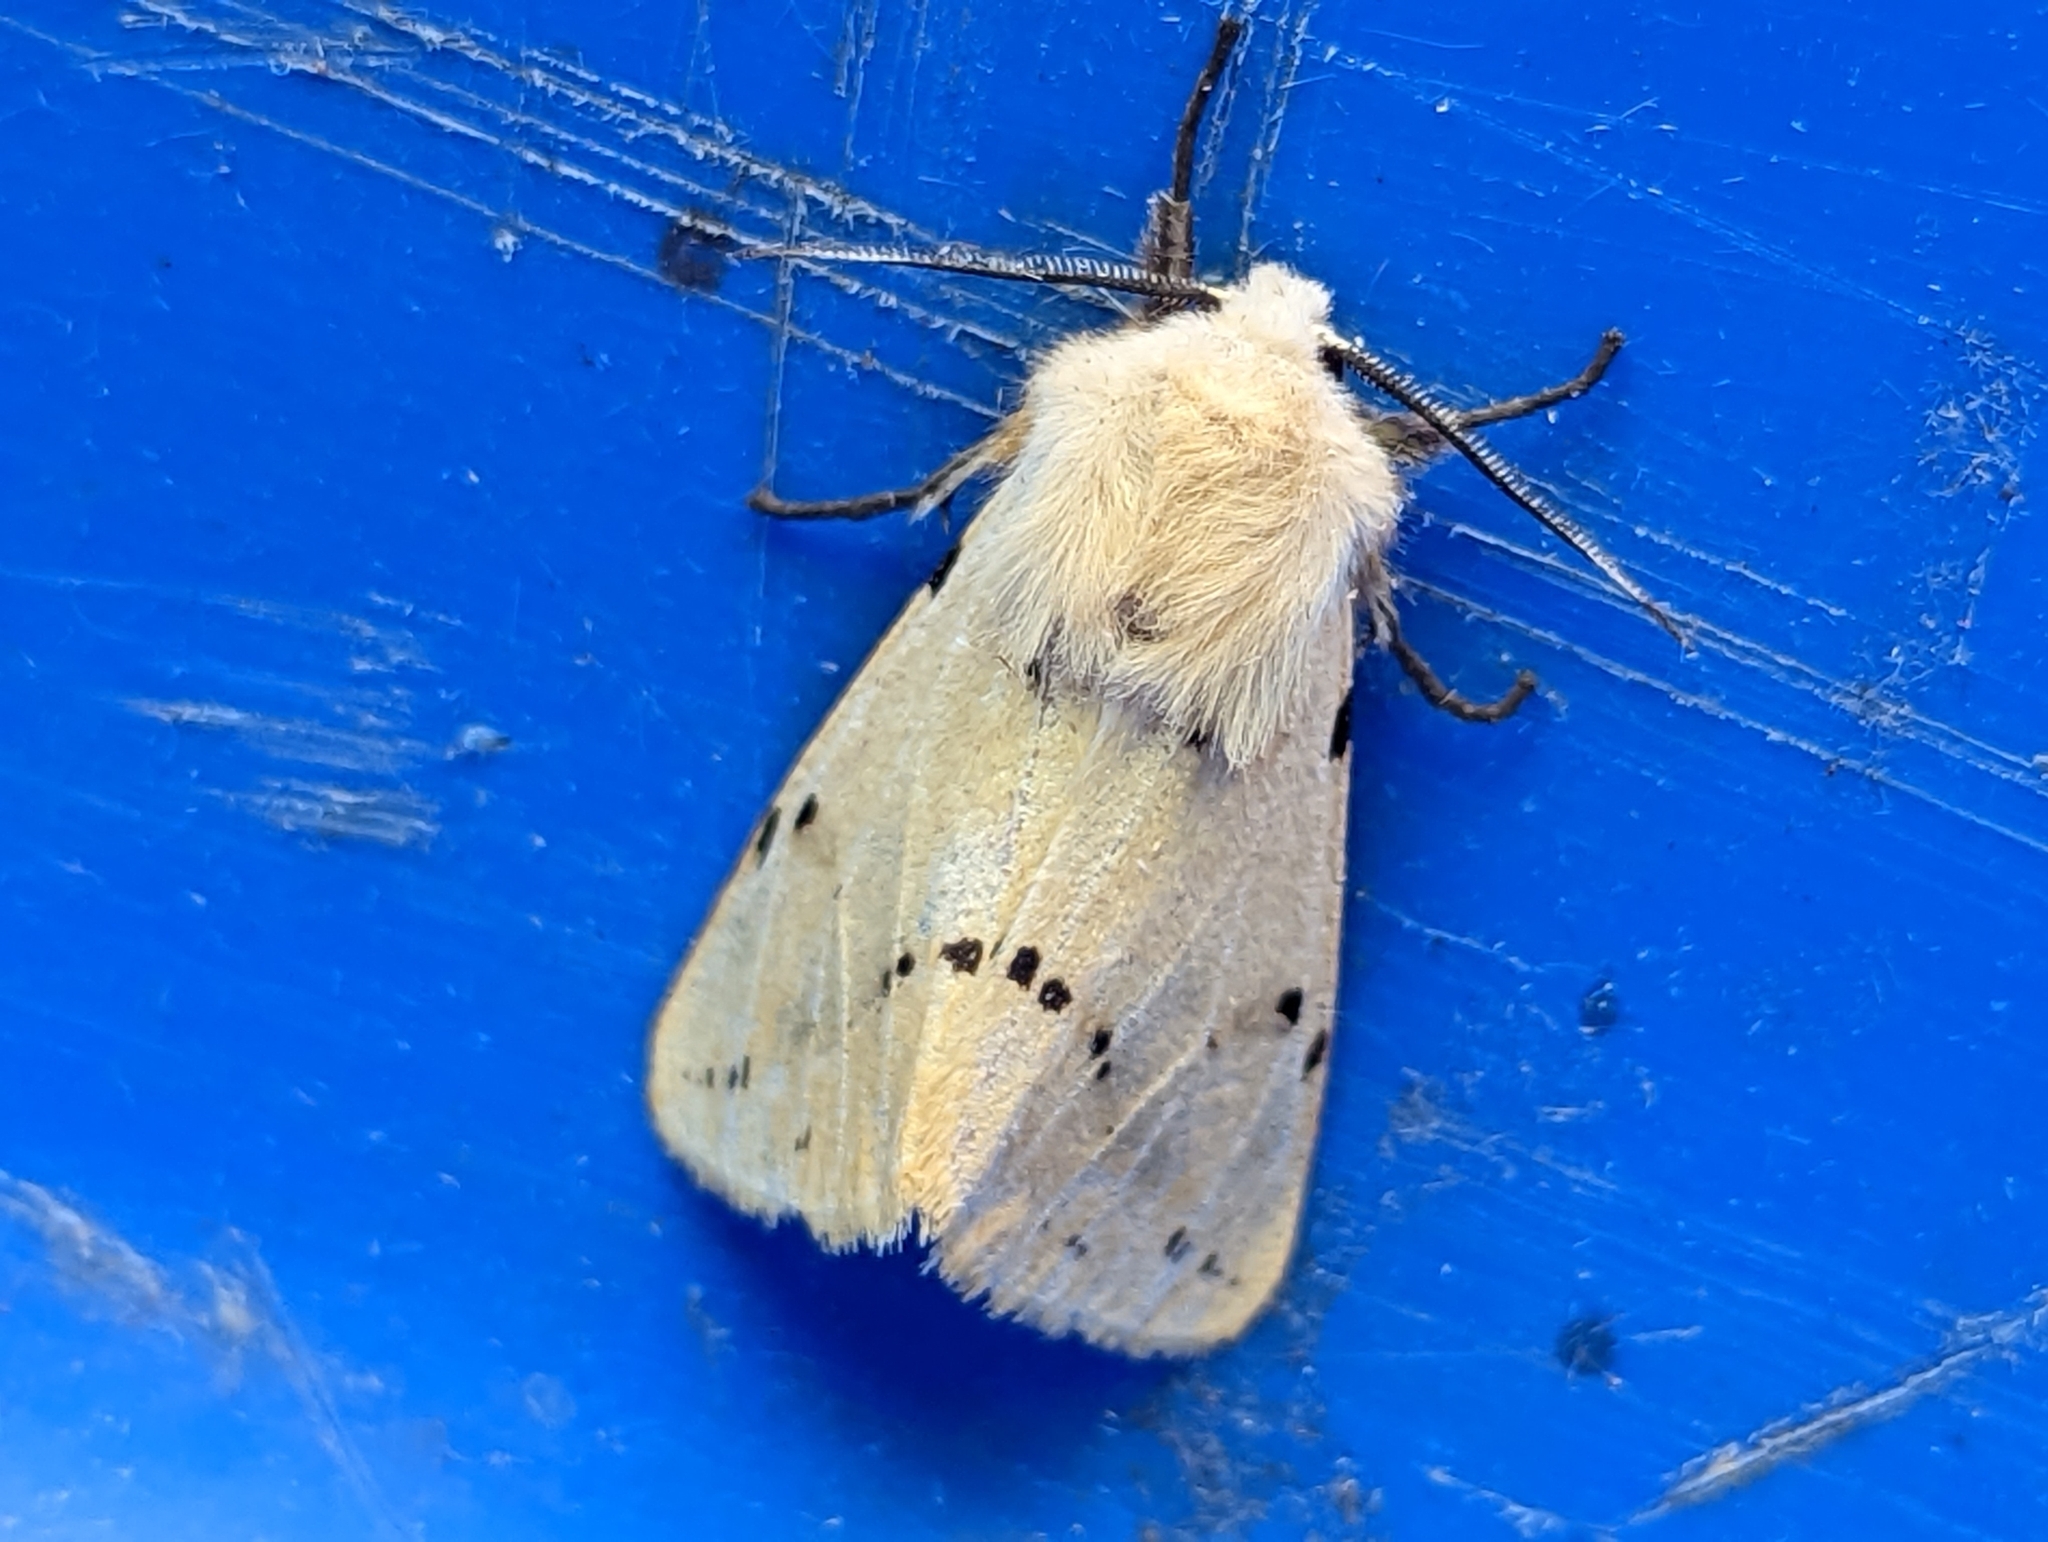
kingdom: Animalia
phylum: Arthropoda
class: Insecta
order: Lepidoptera
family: Erebidae
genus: Spilarctia
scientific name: Spilarctia lutea
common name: Buff ermine
